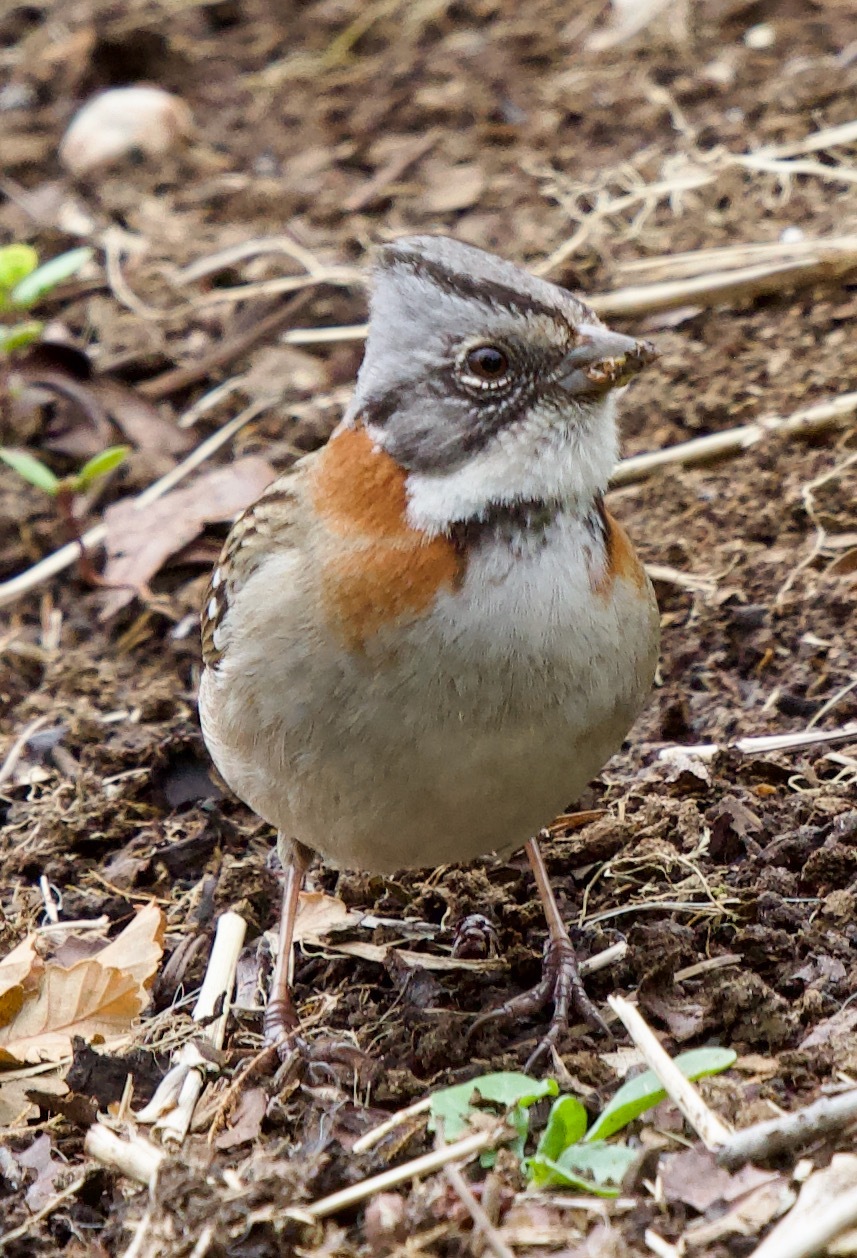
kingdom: Animalia
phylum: Chordata
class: Aves
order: Passeriformes
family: Passerellidae
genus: Zonotrichia
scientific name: Zonotrichia capensis
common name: Rufous-collared sparrow
